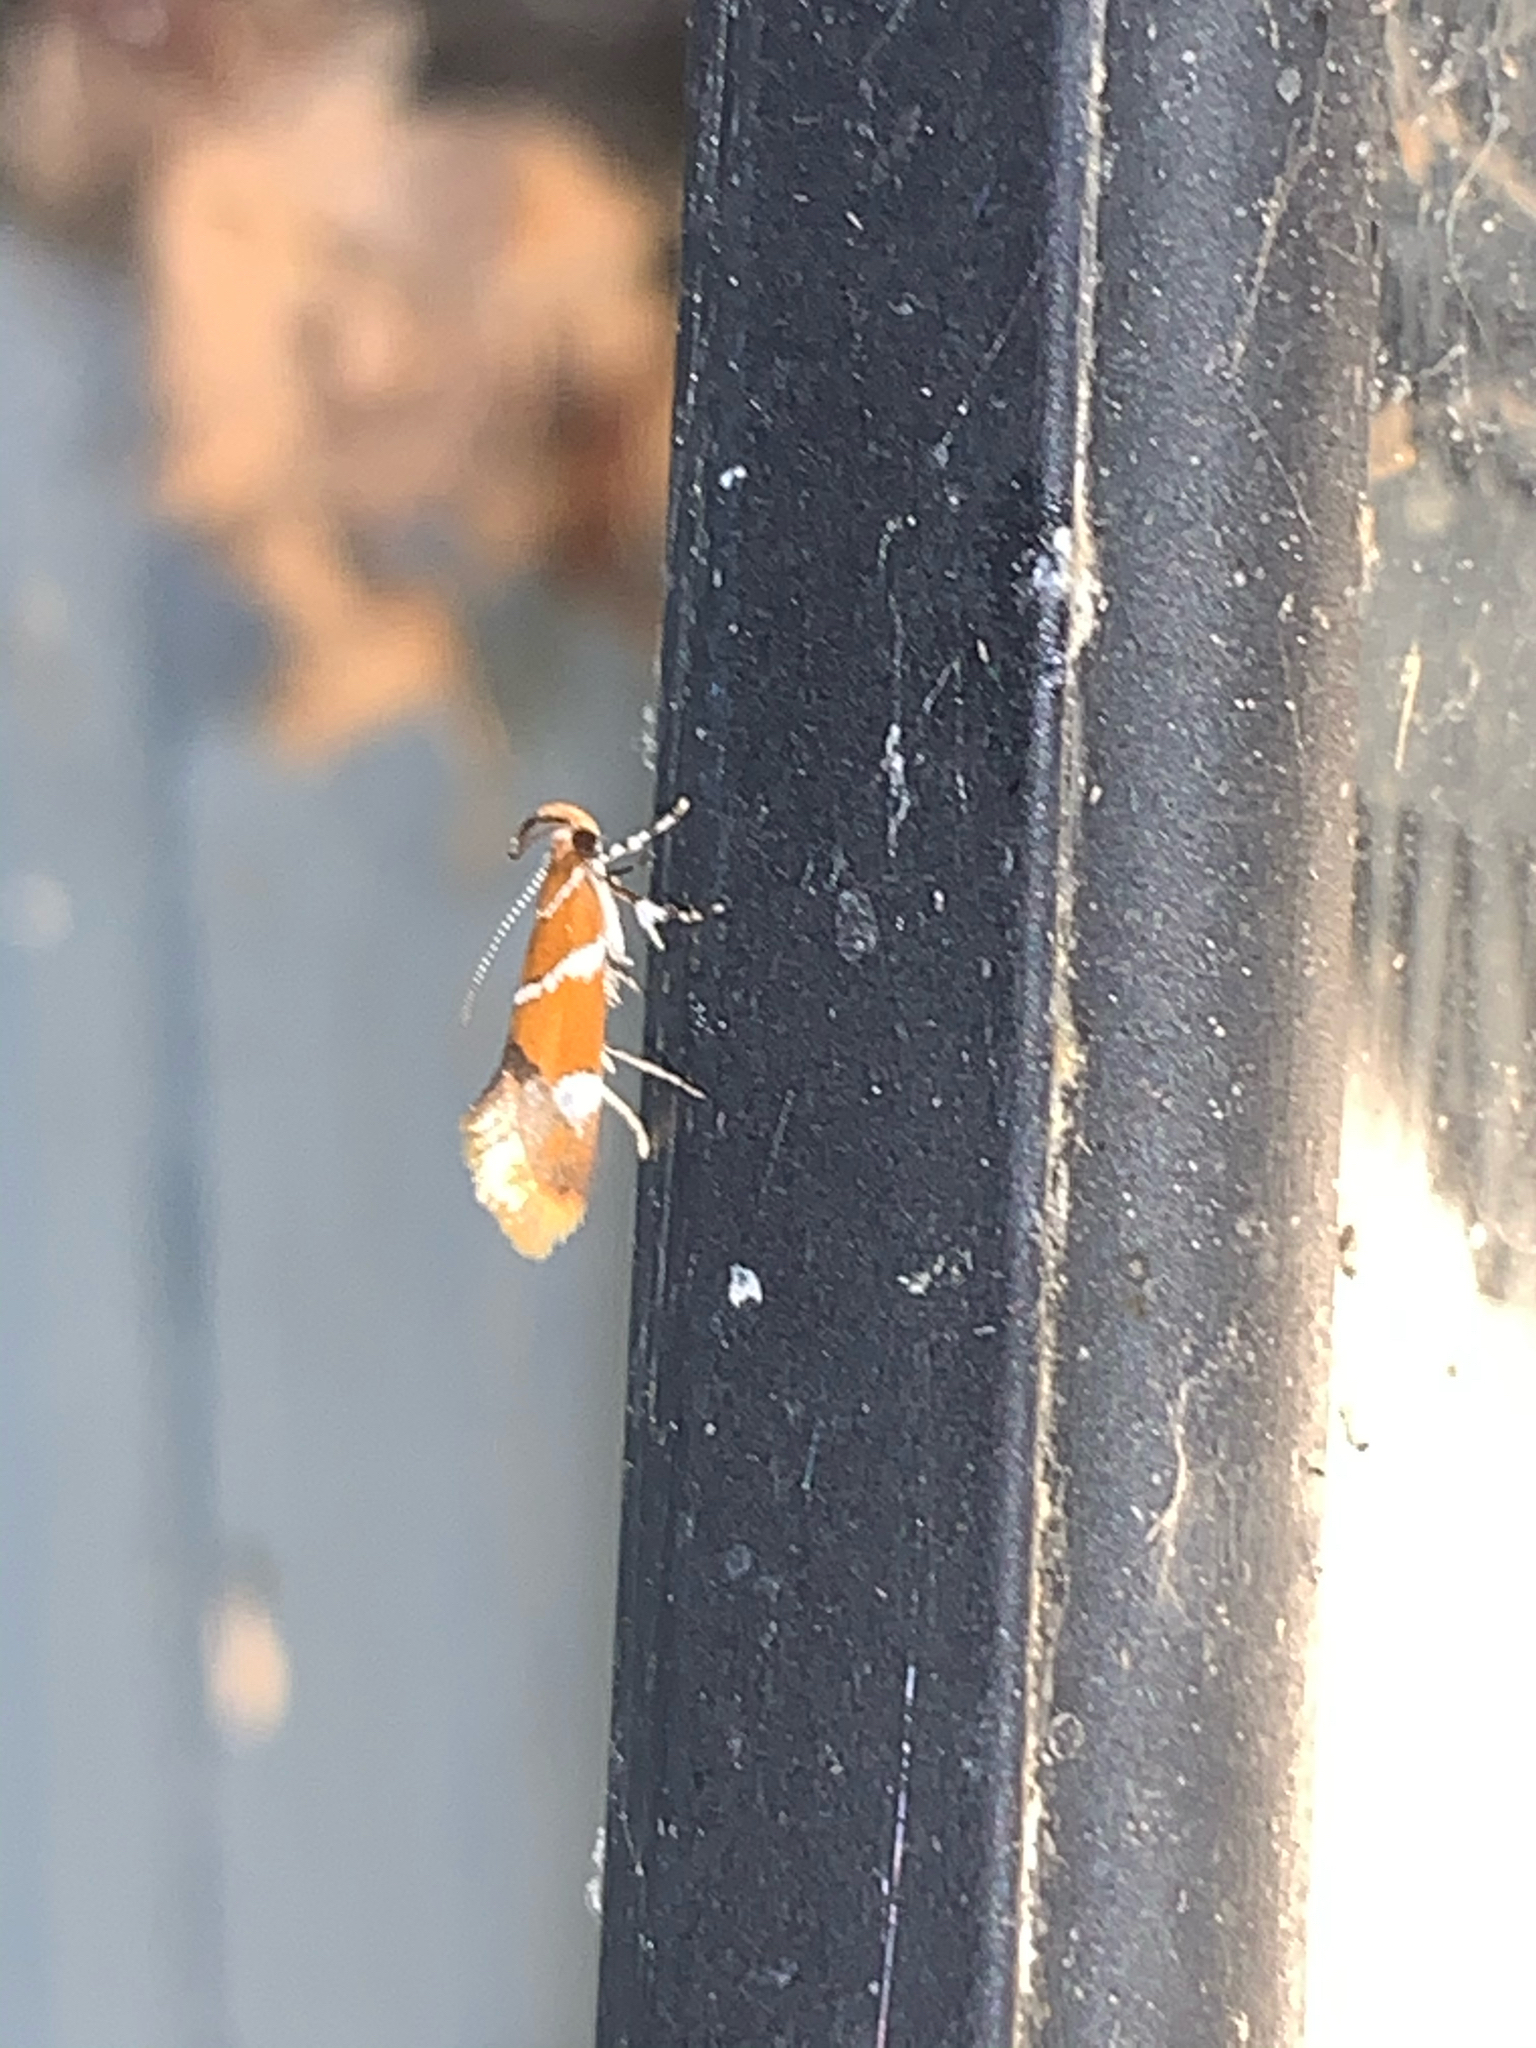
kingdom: Animalia
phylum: Arthropoda
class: Insecta
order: Lepidoptera
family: Oecophoridae
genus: Promalactis
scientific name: Promalactis suzukiella
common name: Moth
